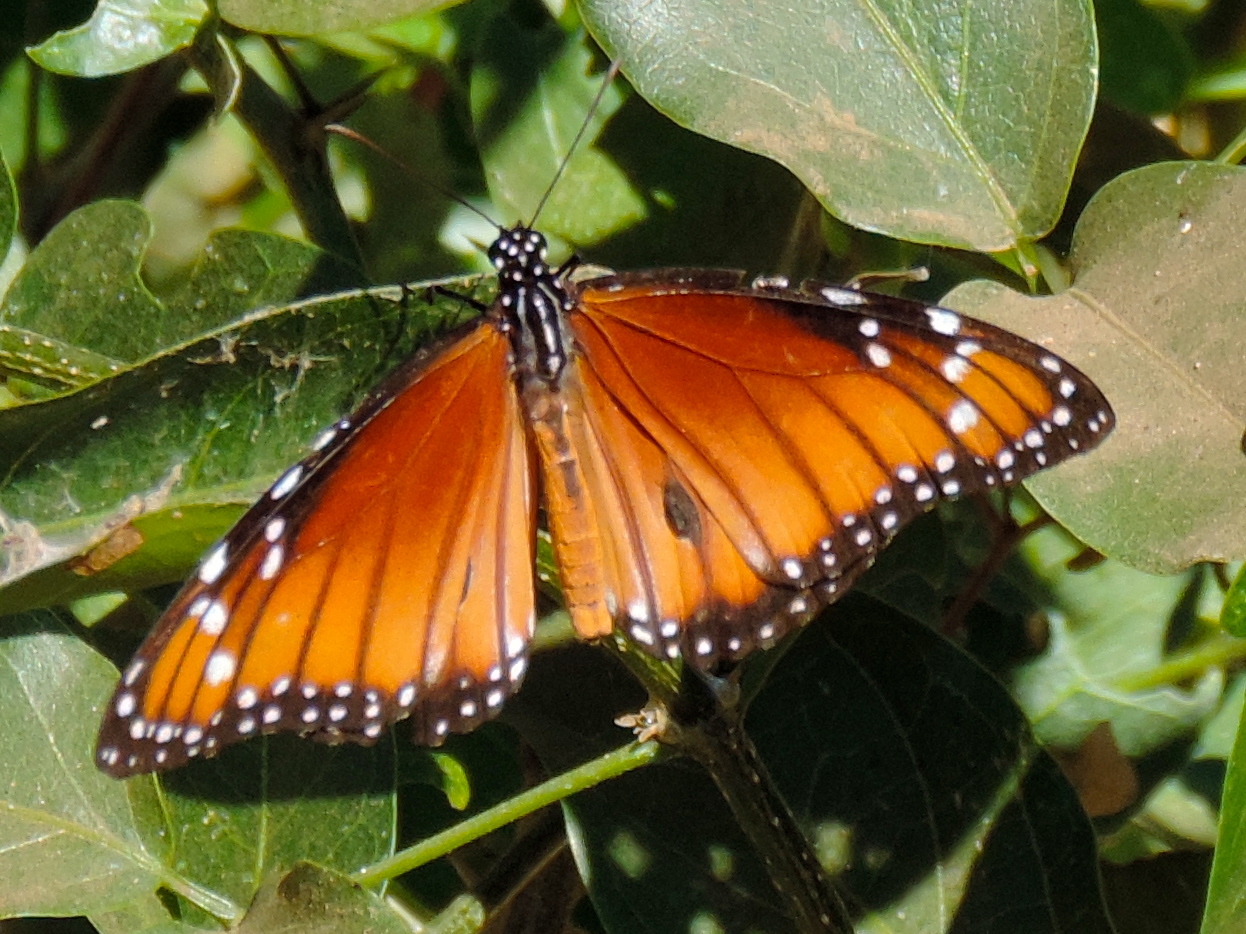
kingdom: Animalia
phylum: Arthropoda
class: Insecta
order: Lepidoptera
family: Nymphalidae
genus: Danaus
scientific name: Danaus eresimus
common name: Soldier
